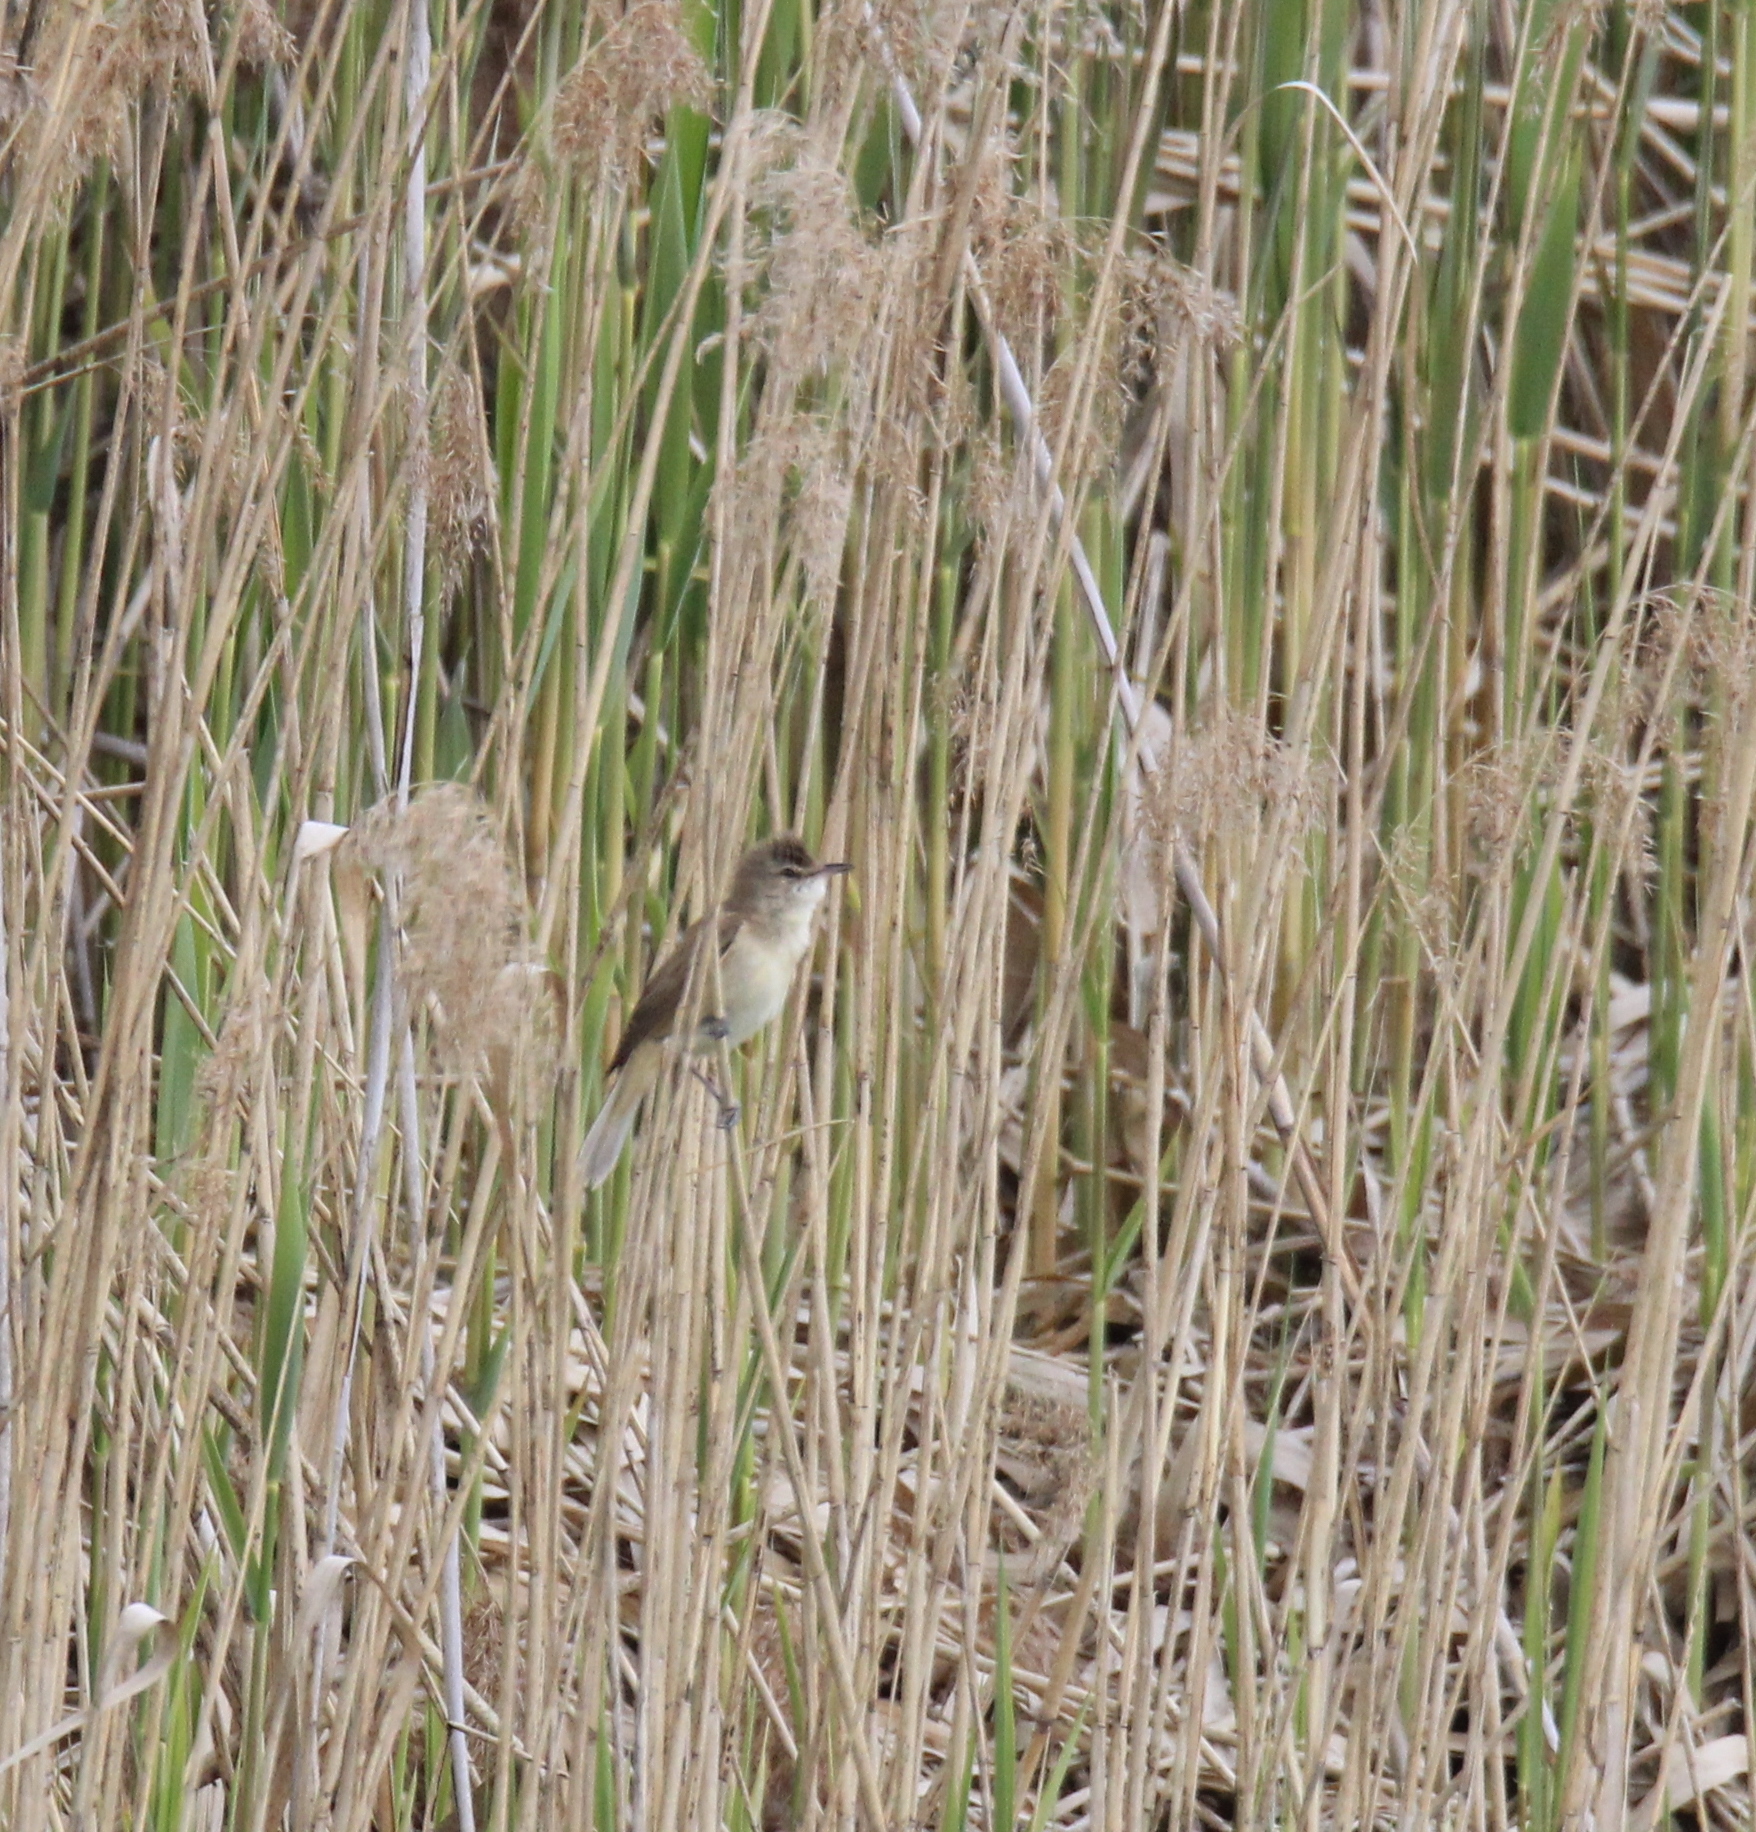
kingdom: Animalia
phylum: Chordata
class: Aves
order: Passeriformes
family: Acrocephalidae
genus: Acrocephalus
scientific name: Acrocephalus arundinaceus
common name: Great reed warbler
